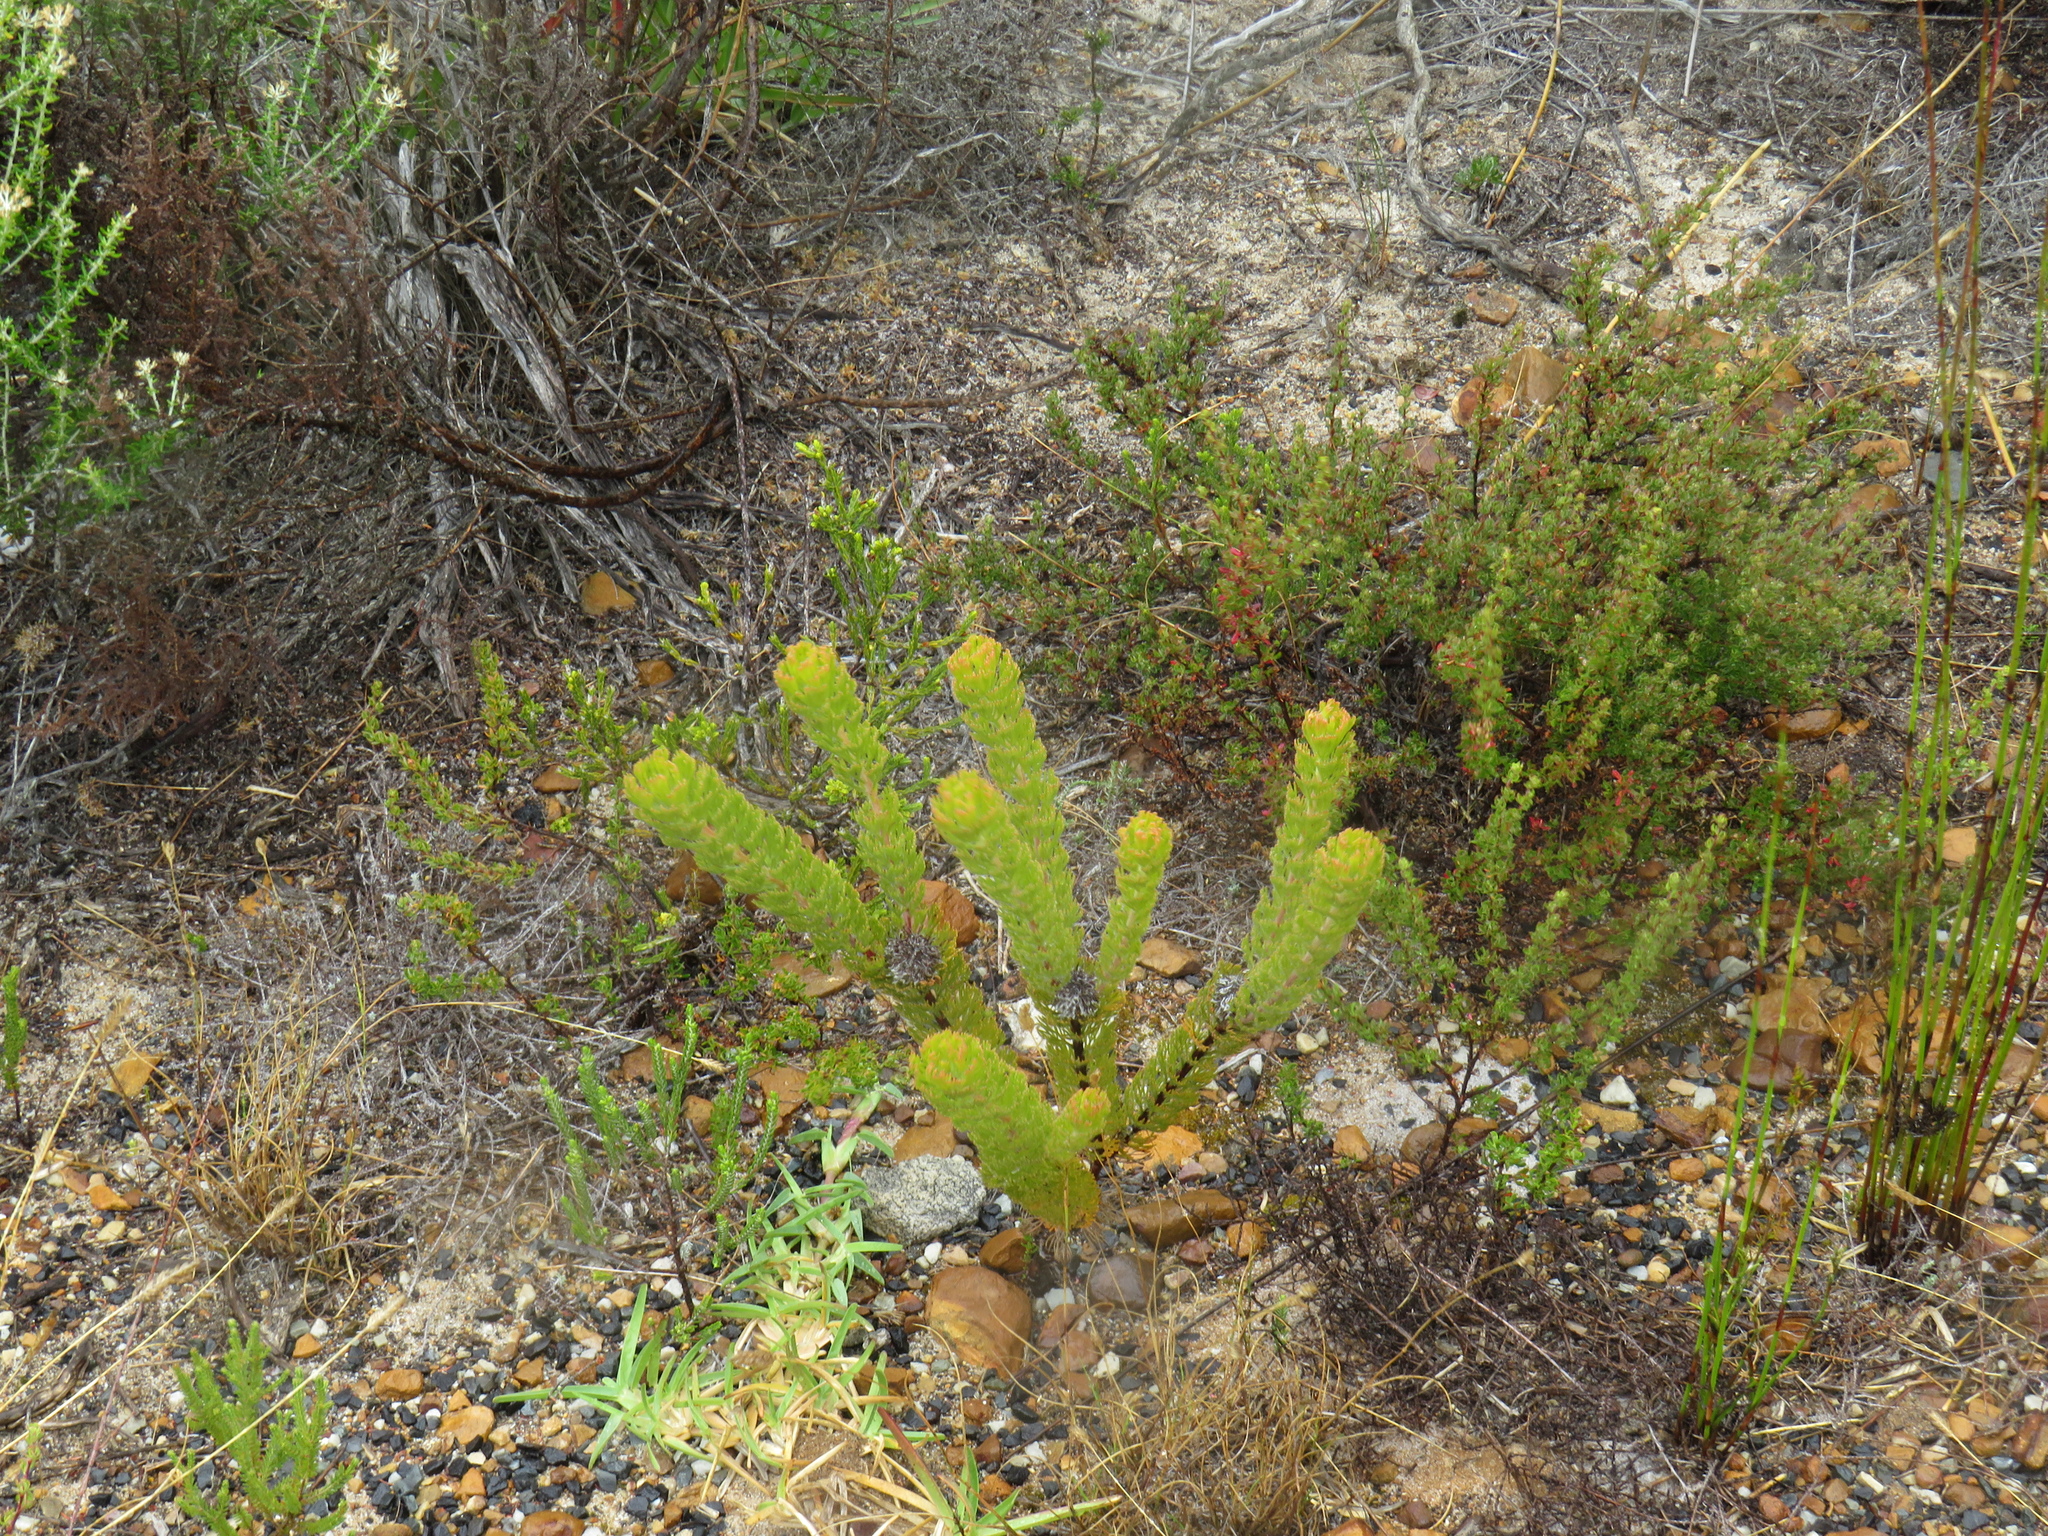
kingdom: Plantae
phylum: Tracheophyta
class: Magnoliopsida
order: Proteales
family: Proteaceae
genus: Serruria
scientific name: Serruria villosa
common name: Golden spiderhead
